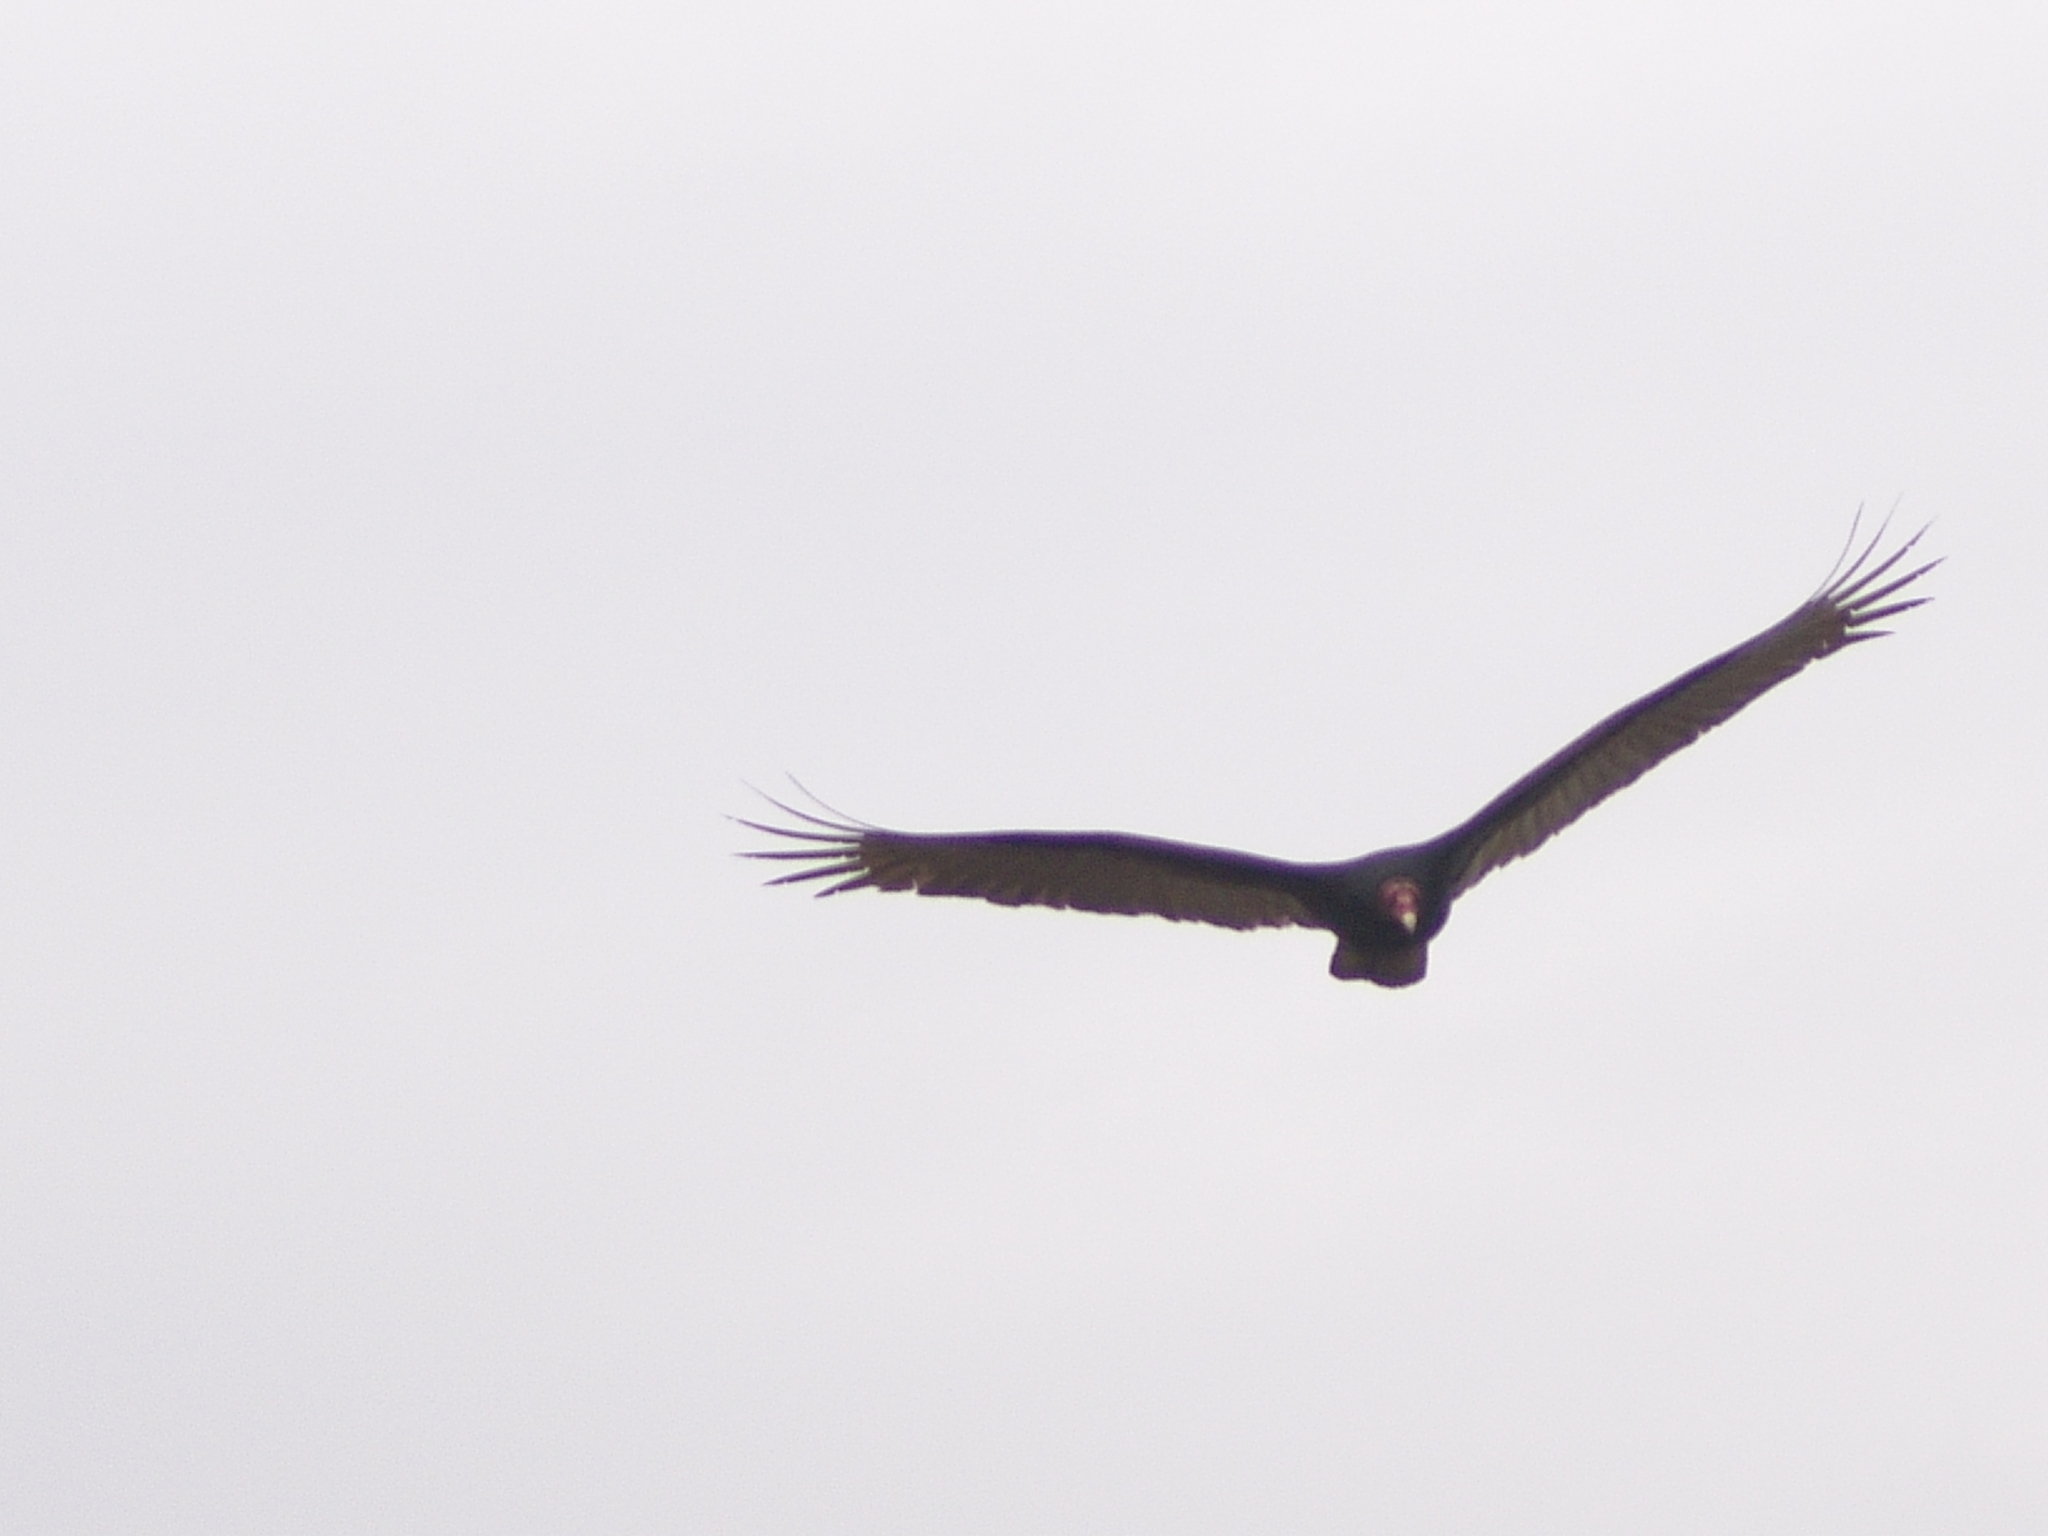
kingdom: Animalia
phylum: Chordata
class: Aves
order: Accipitriformes
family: Cathartidae
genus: Cathartes
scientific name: Cathartes aura
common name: Turkey vulture
